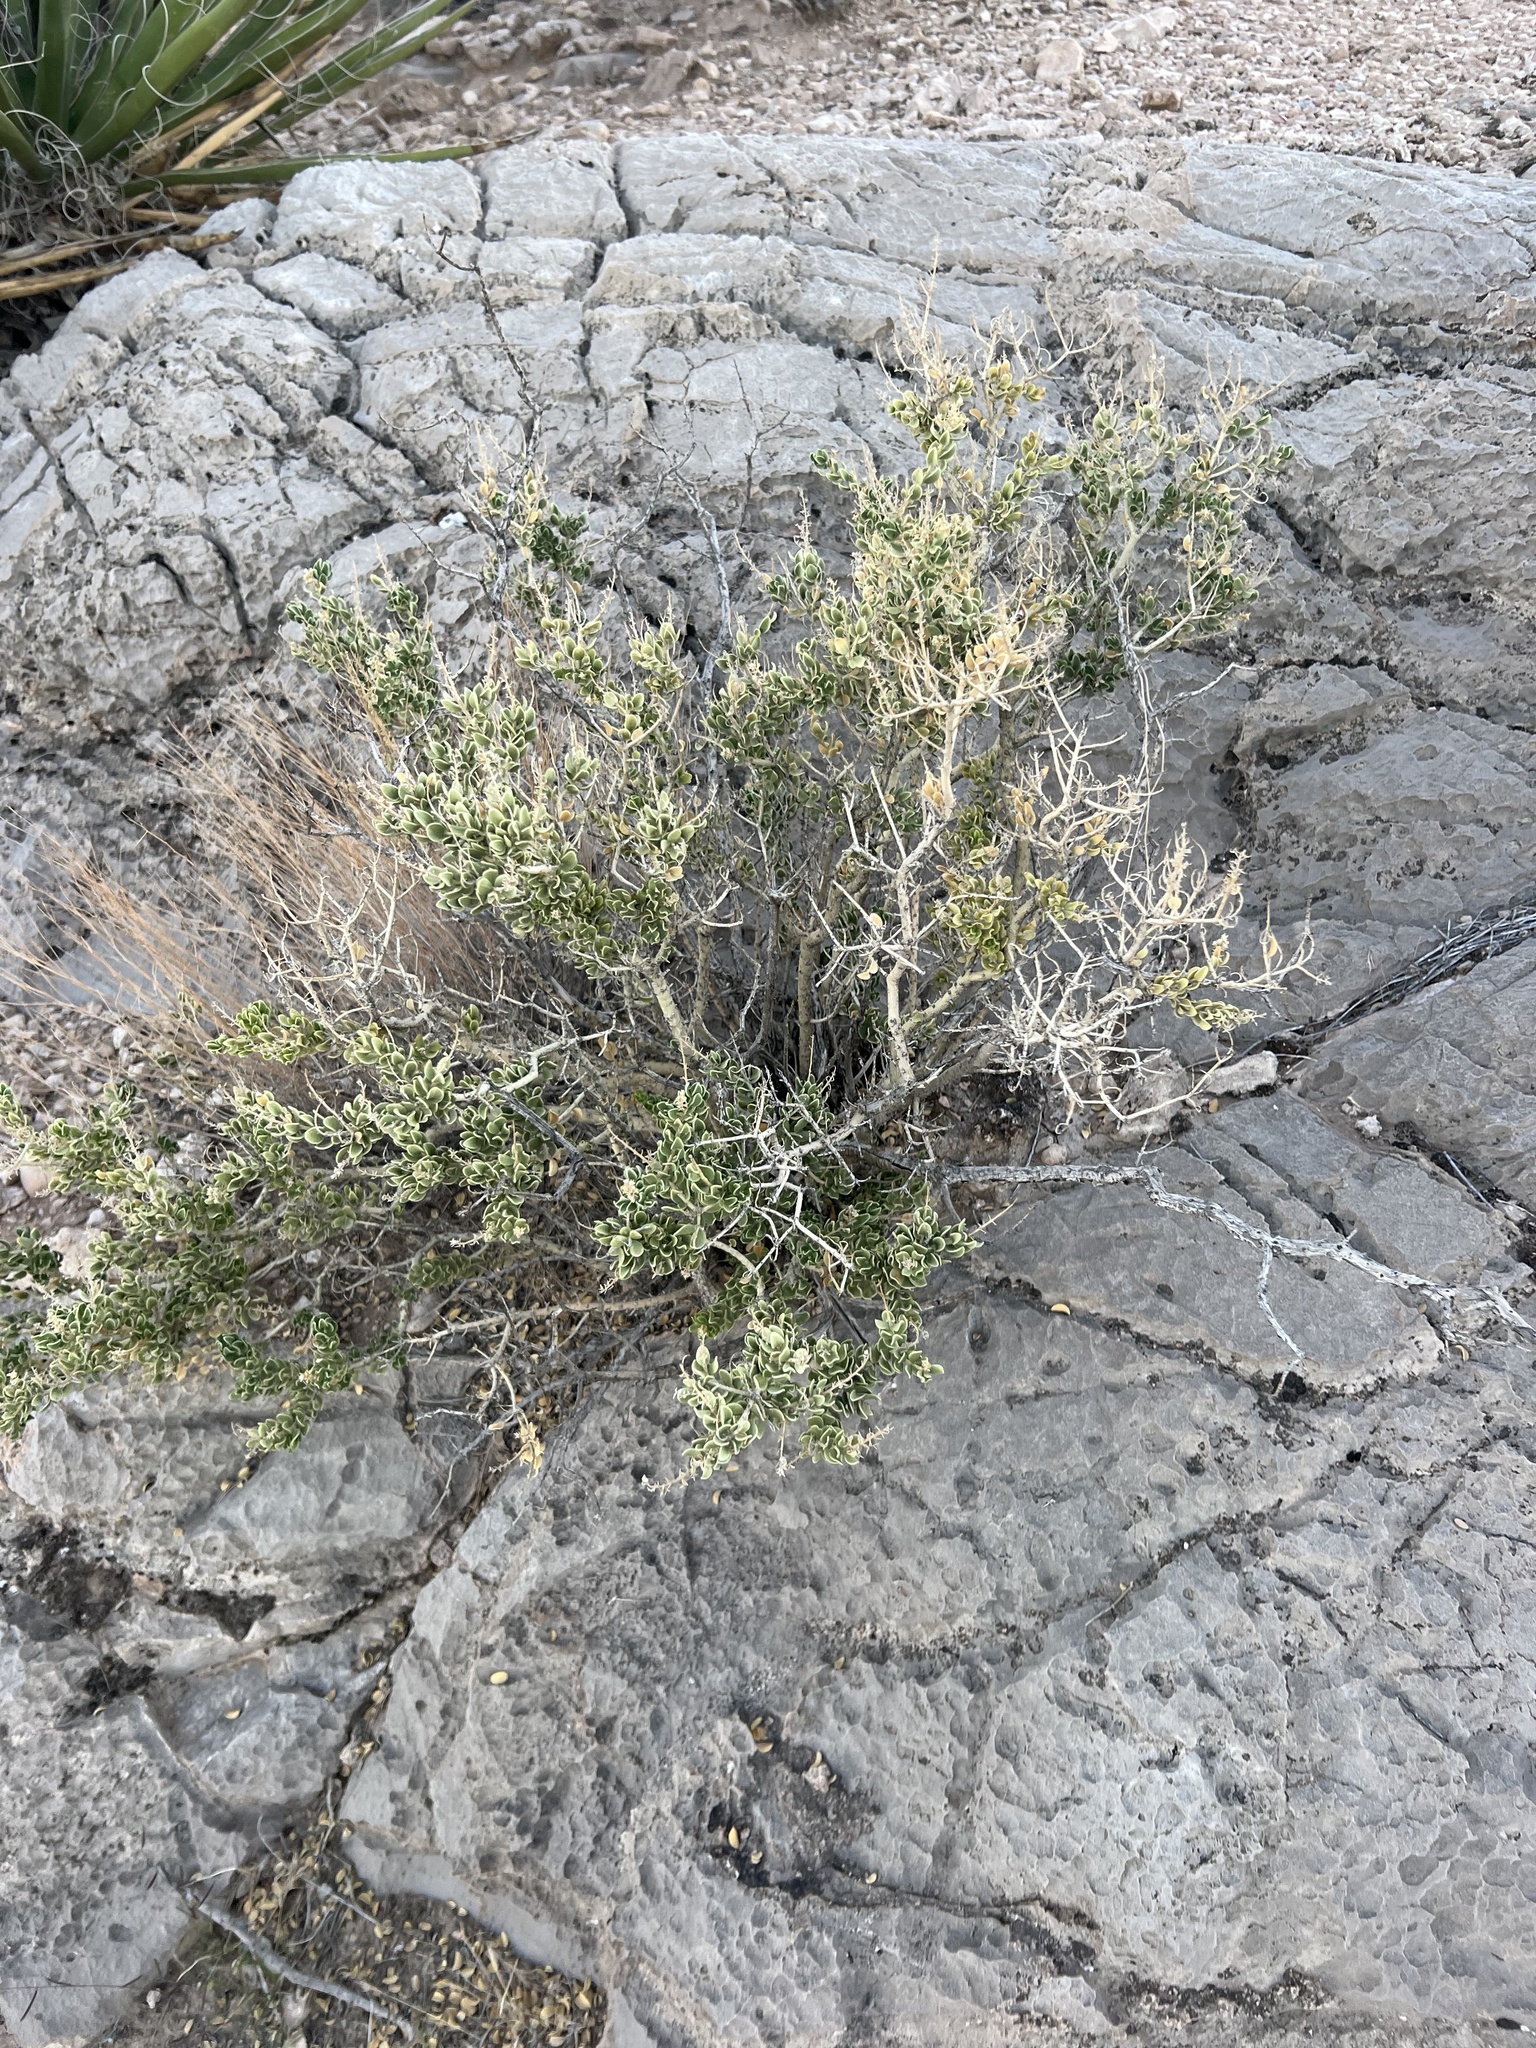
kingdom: Plantae
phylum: Tracheophyta
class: Magnoliopsida
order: Celastrales
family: Celastraceae
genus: Mortonia
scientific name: Mortonia utahensis
